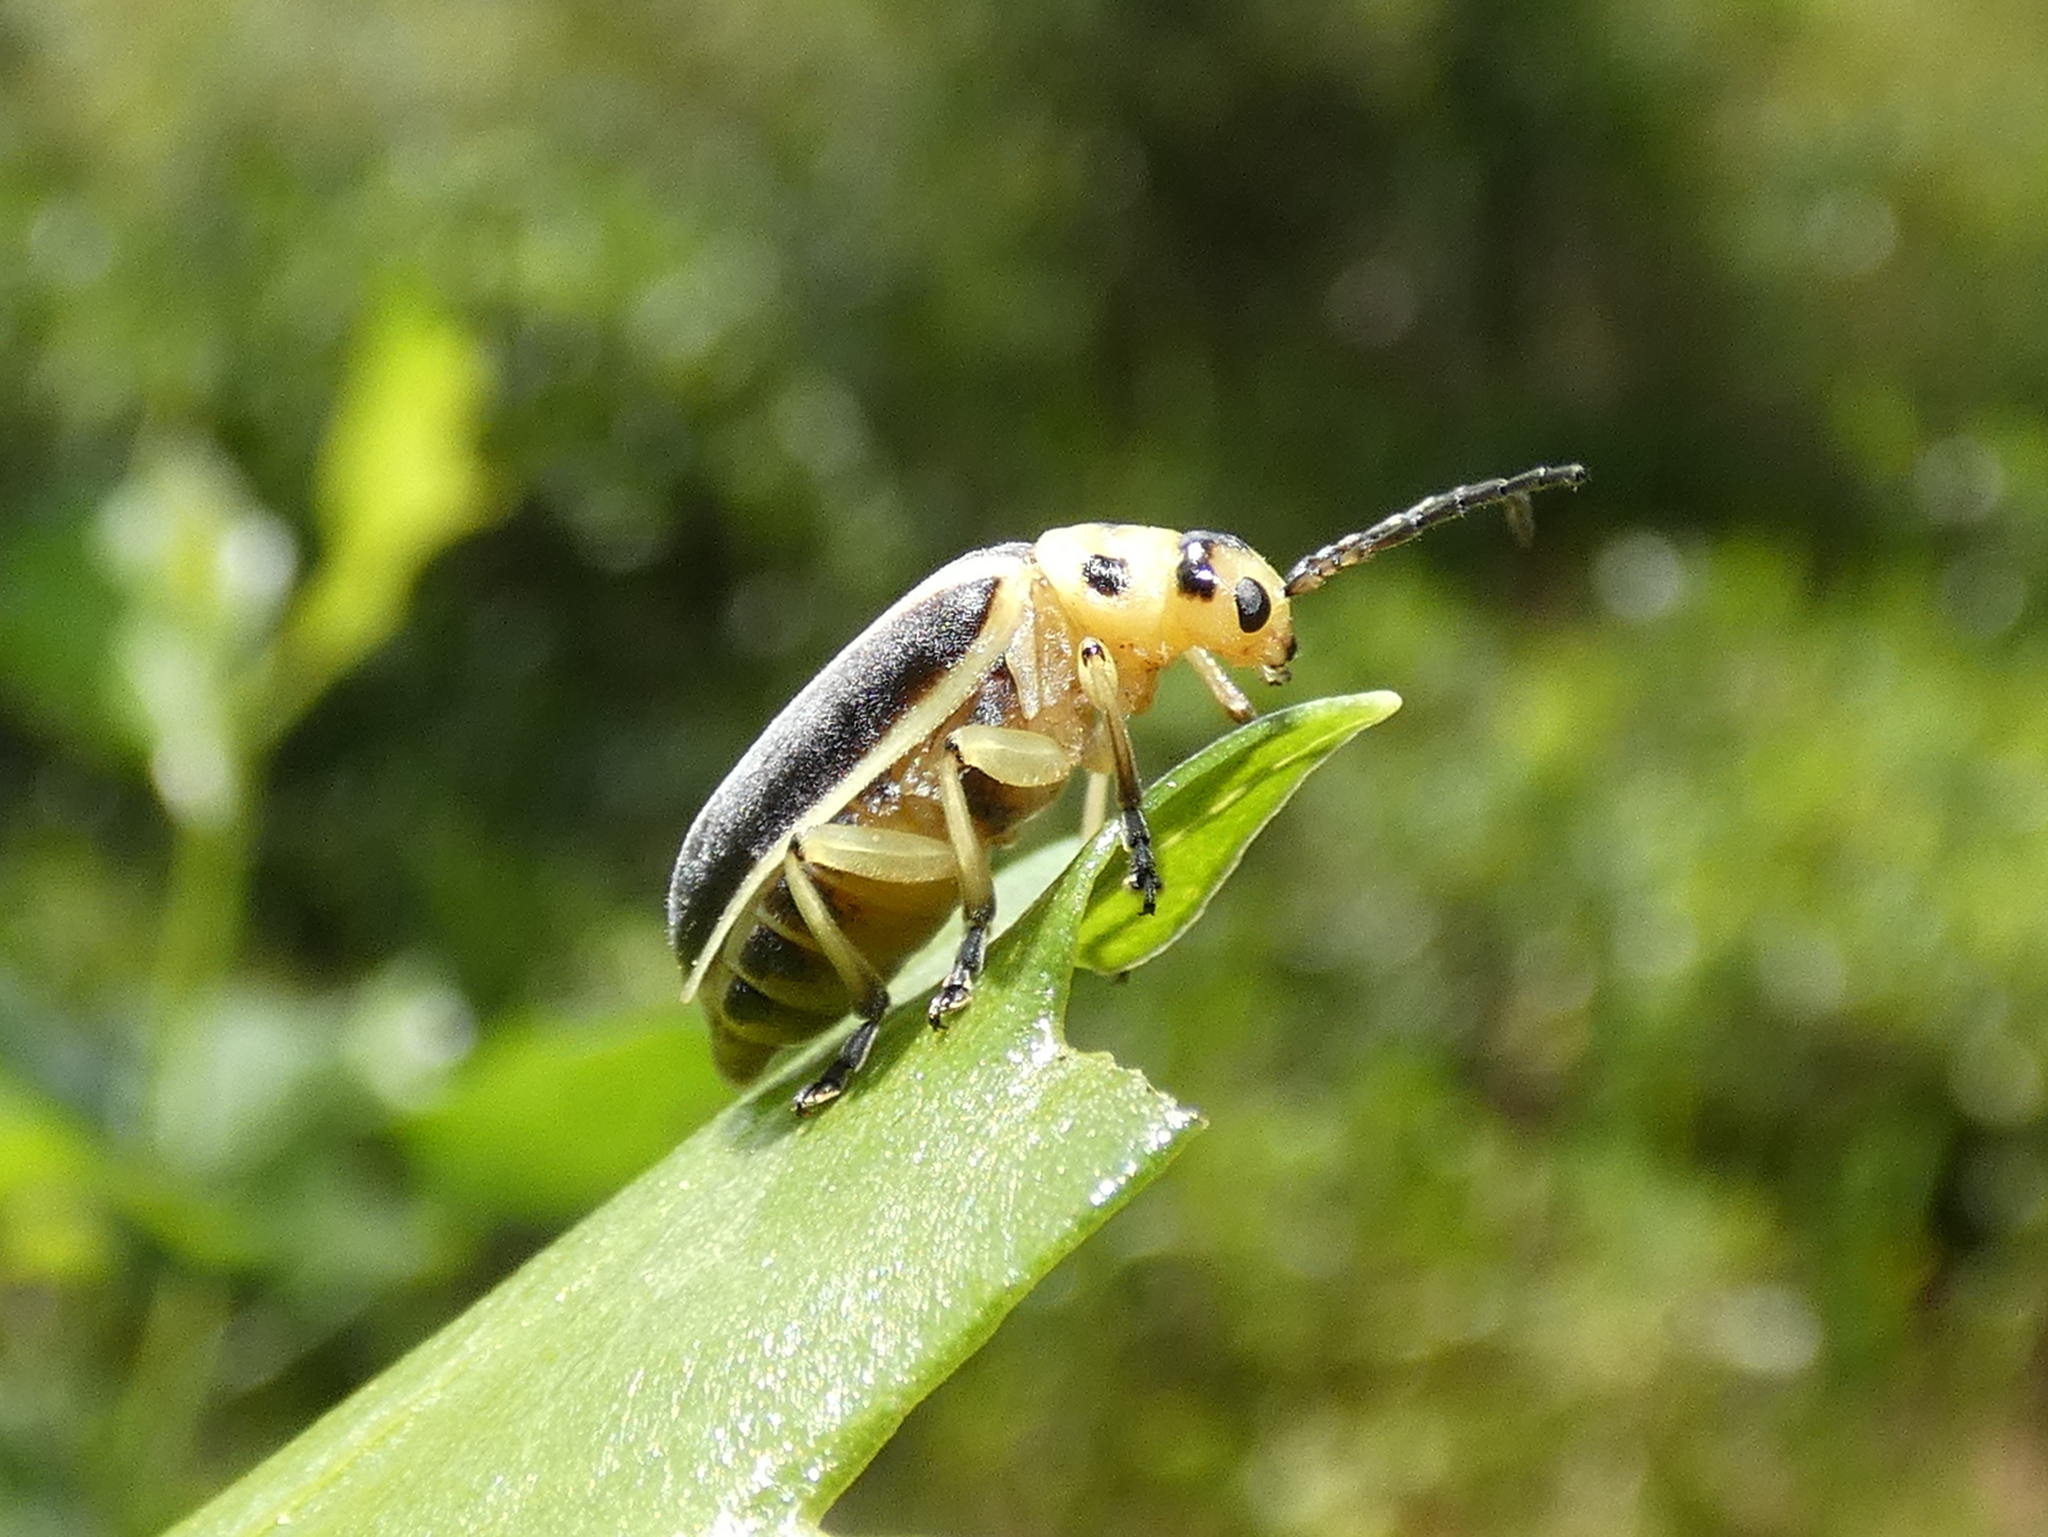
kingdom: Animalia
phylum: Arthropoda
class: Insecta
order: Coleoptera
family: Chrysomelidae
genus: Trirhabda
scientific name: Trirhabda bacharidis
